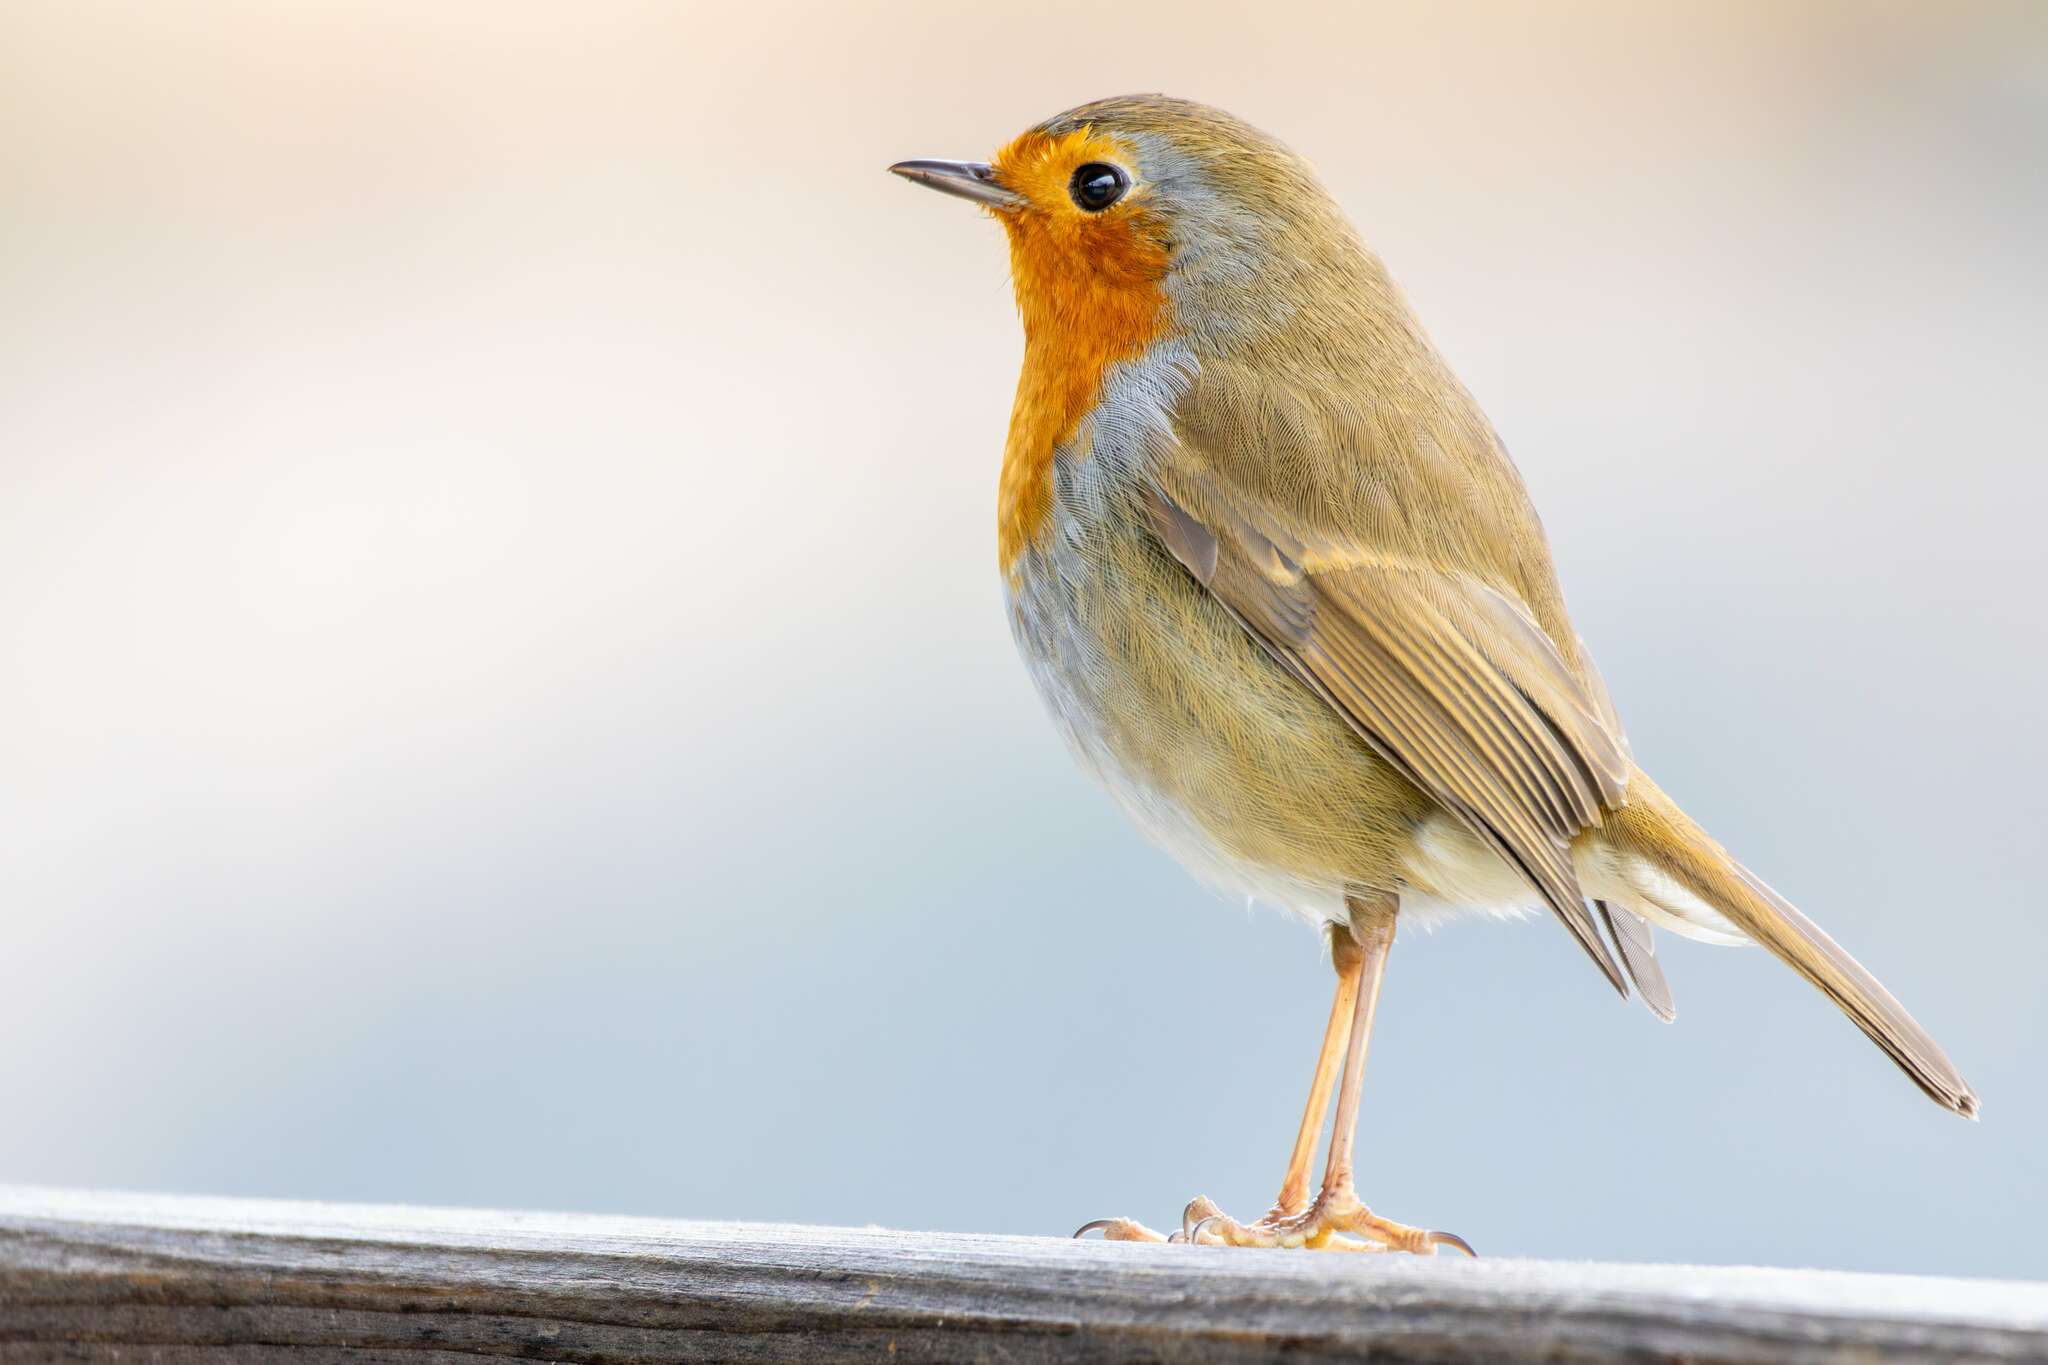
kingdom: Animalia
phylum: Chordata
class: Aves
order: Passeriformes
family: Muscicapidae
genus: Erithacus
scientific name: Erithacus rubecula
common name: European robin
